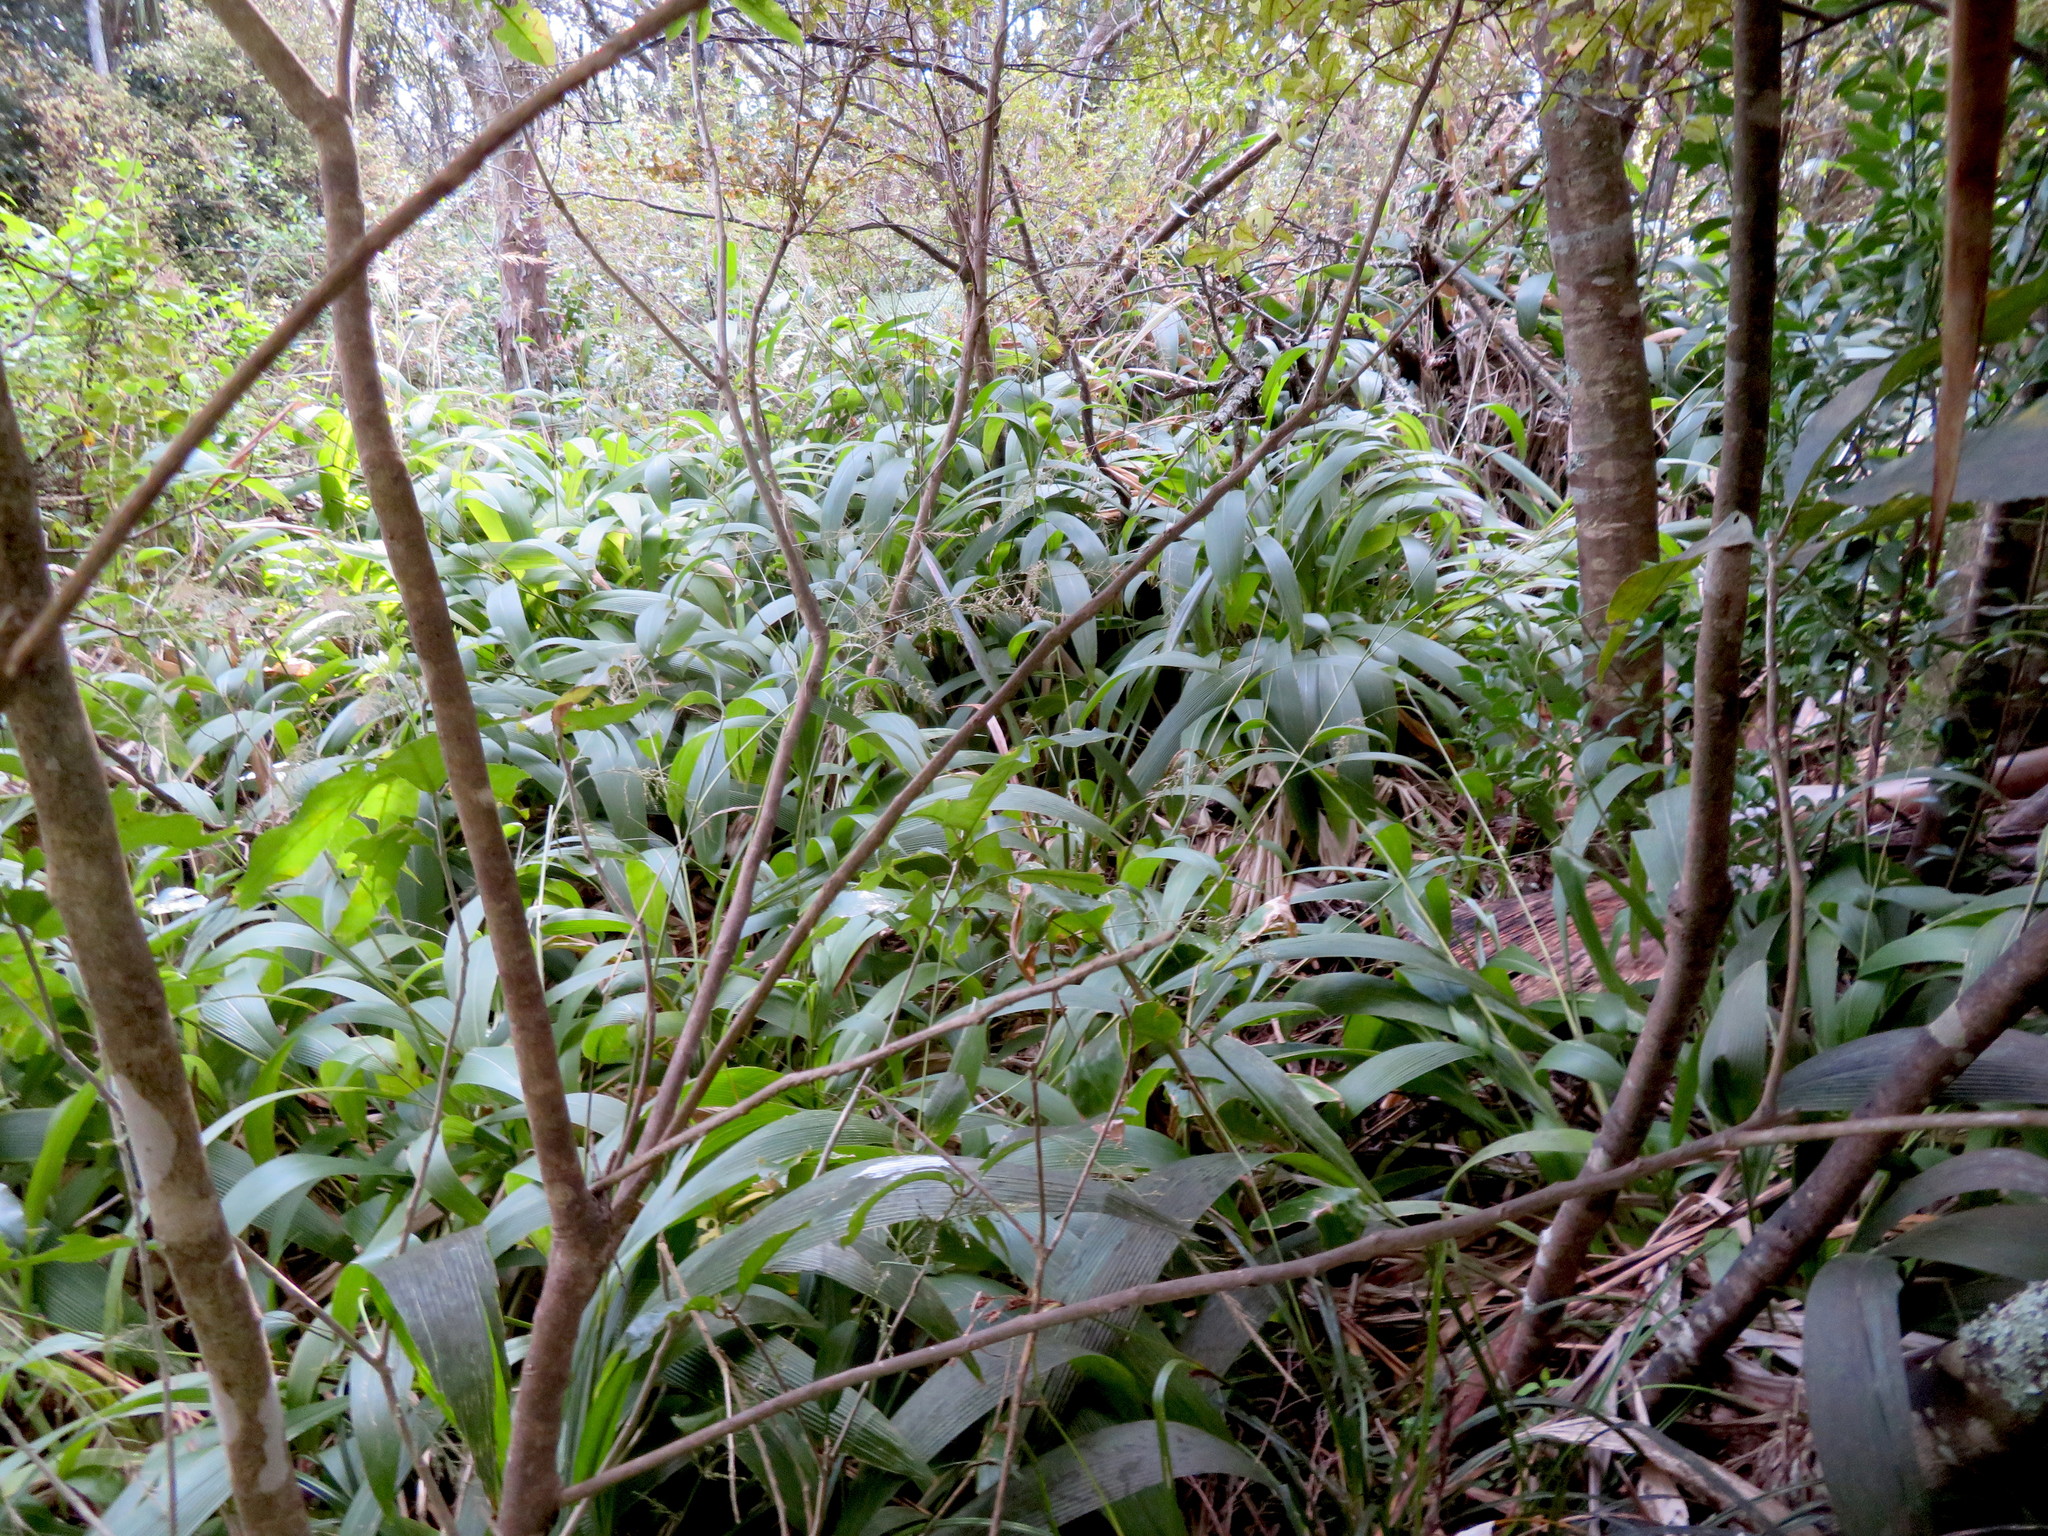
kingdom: Plantae
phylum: Tracheophyta
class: Liliopsida
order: Poales
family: Poaceae
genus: Setaria
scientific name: Setaria palmifolia
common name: Broadleaved bristlegrass
